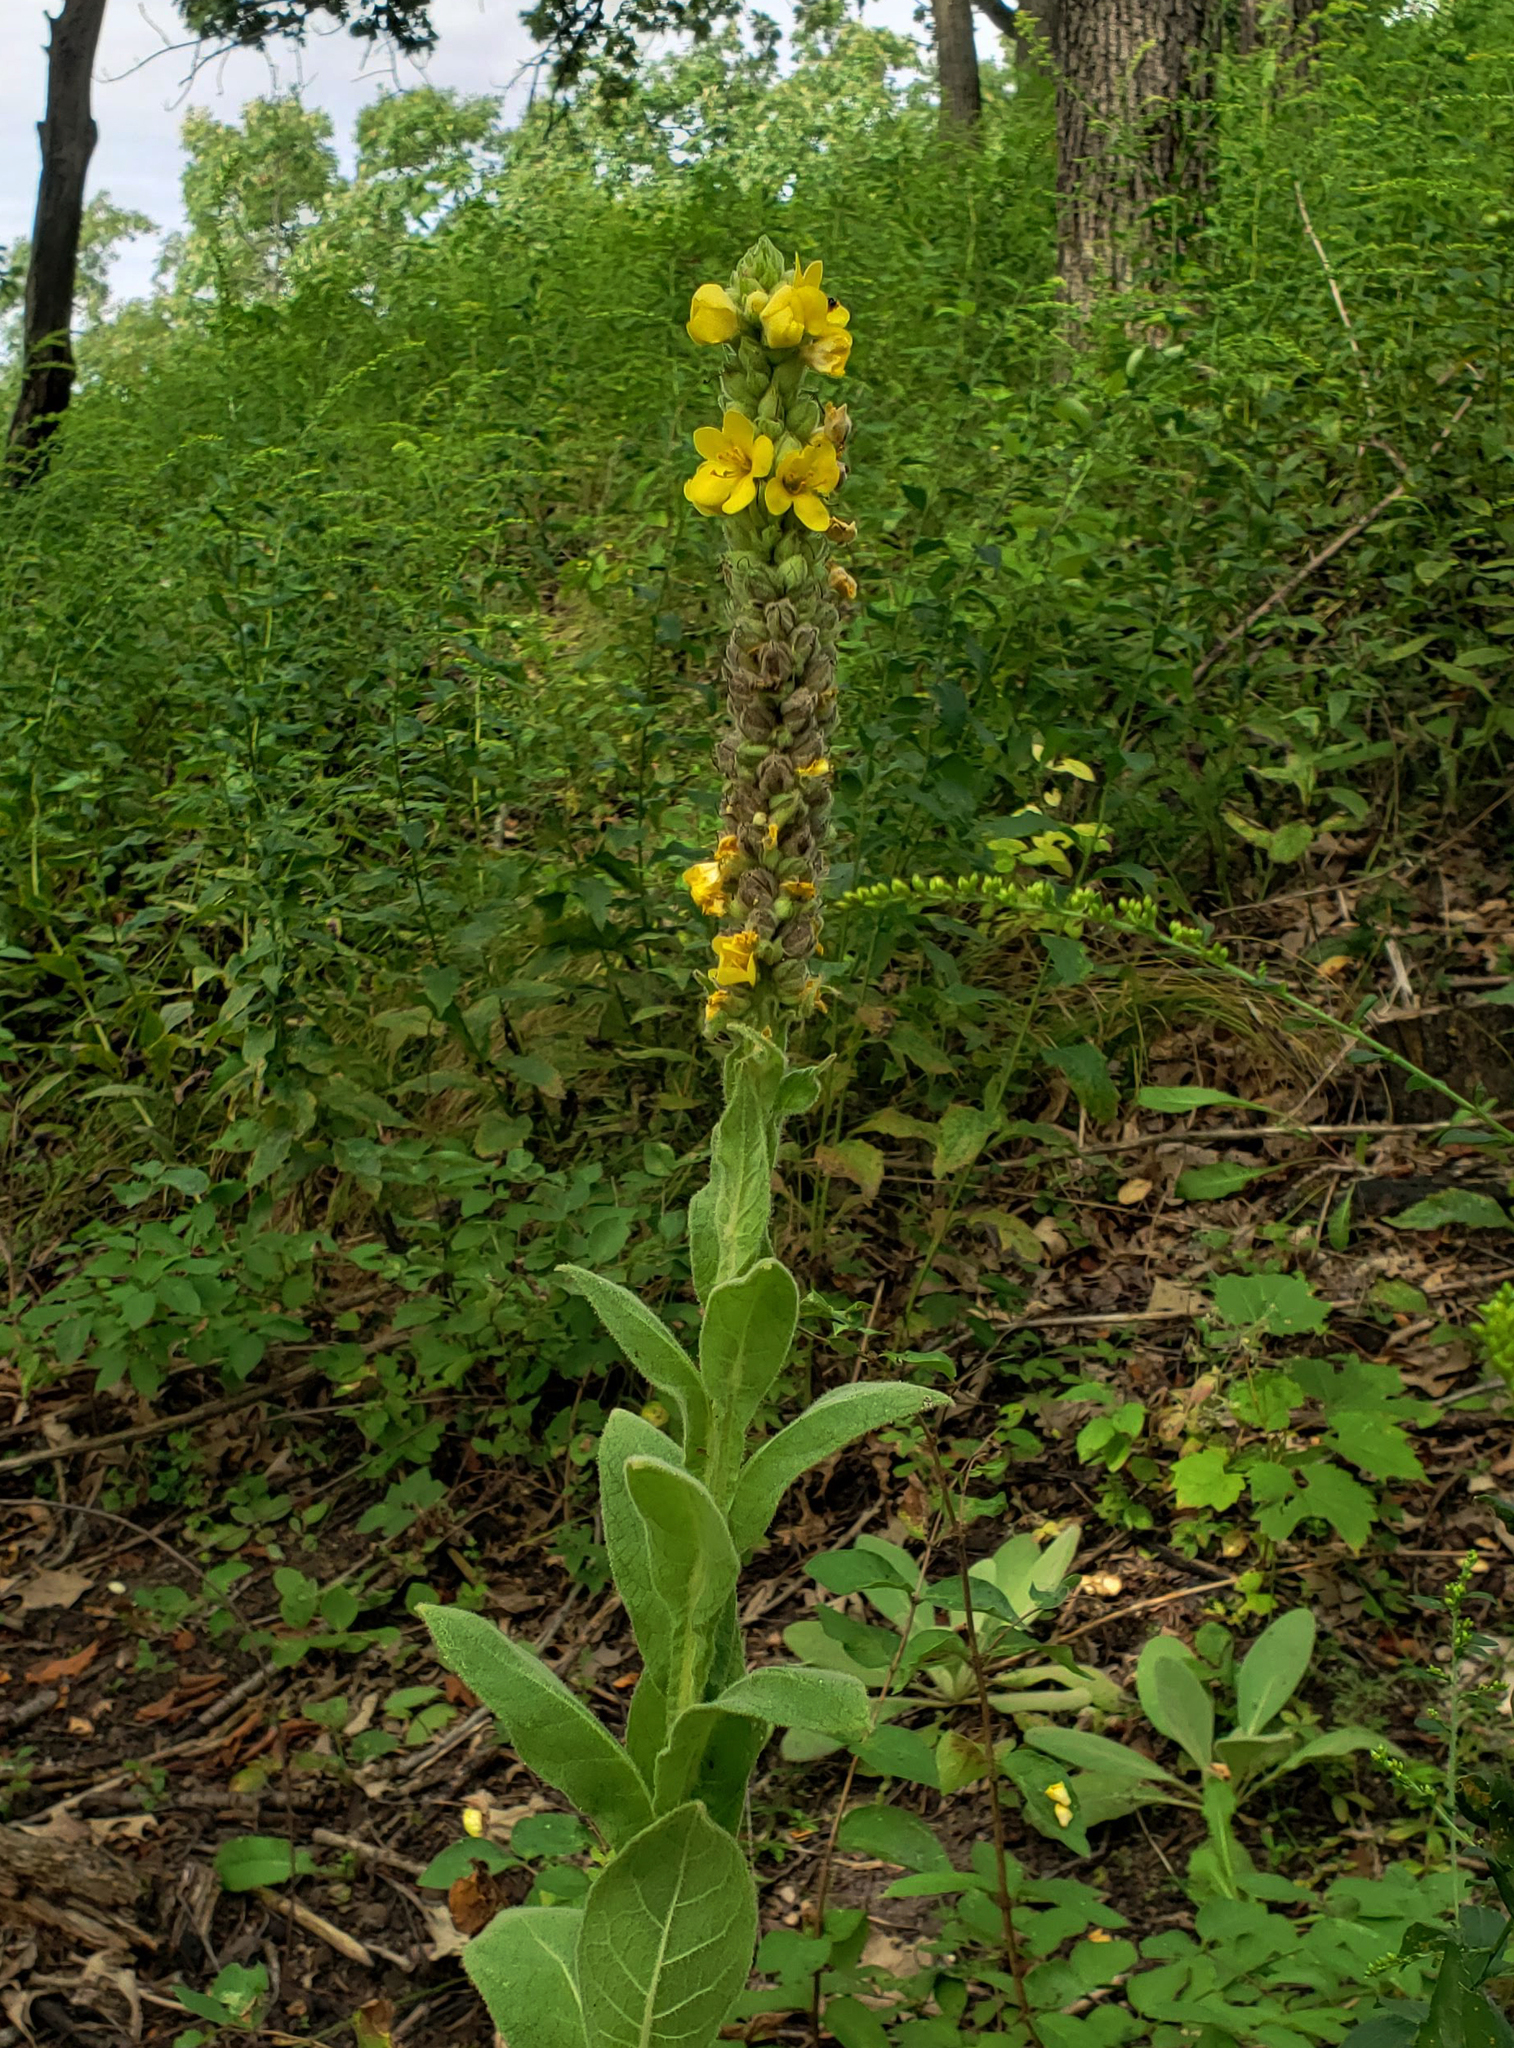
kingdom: Plantae
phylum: Tracheophyta
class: Magnoliopsida
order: Lamiales
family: Scrophulariaceae
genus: Verbascum
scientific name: Verbascum thapsus
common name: Common mullein
